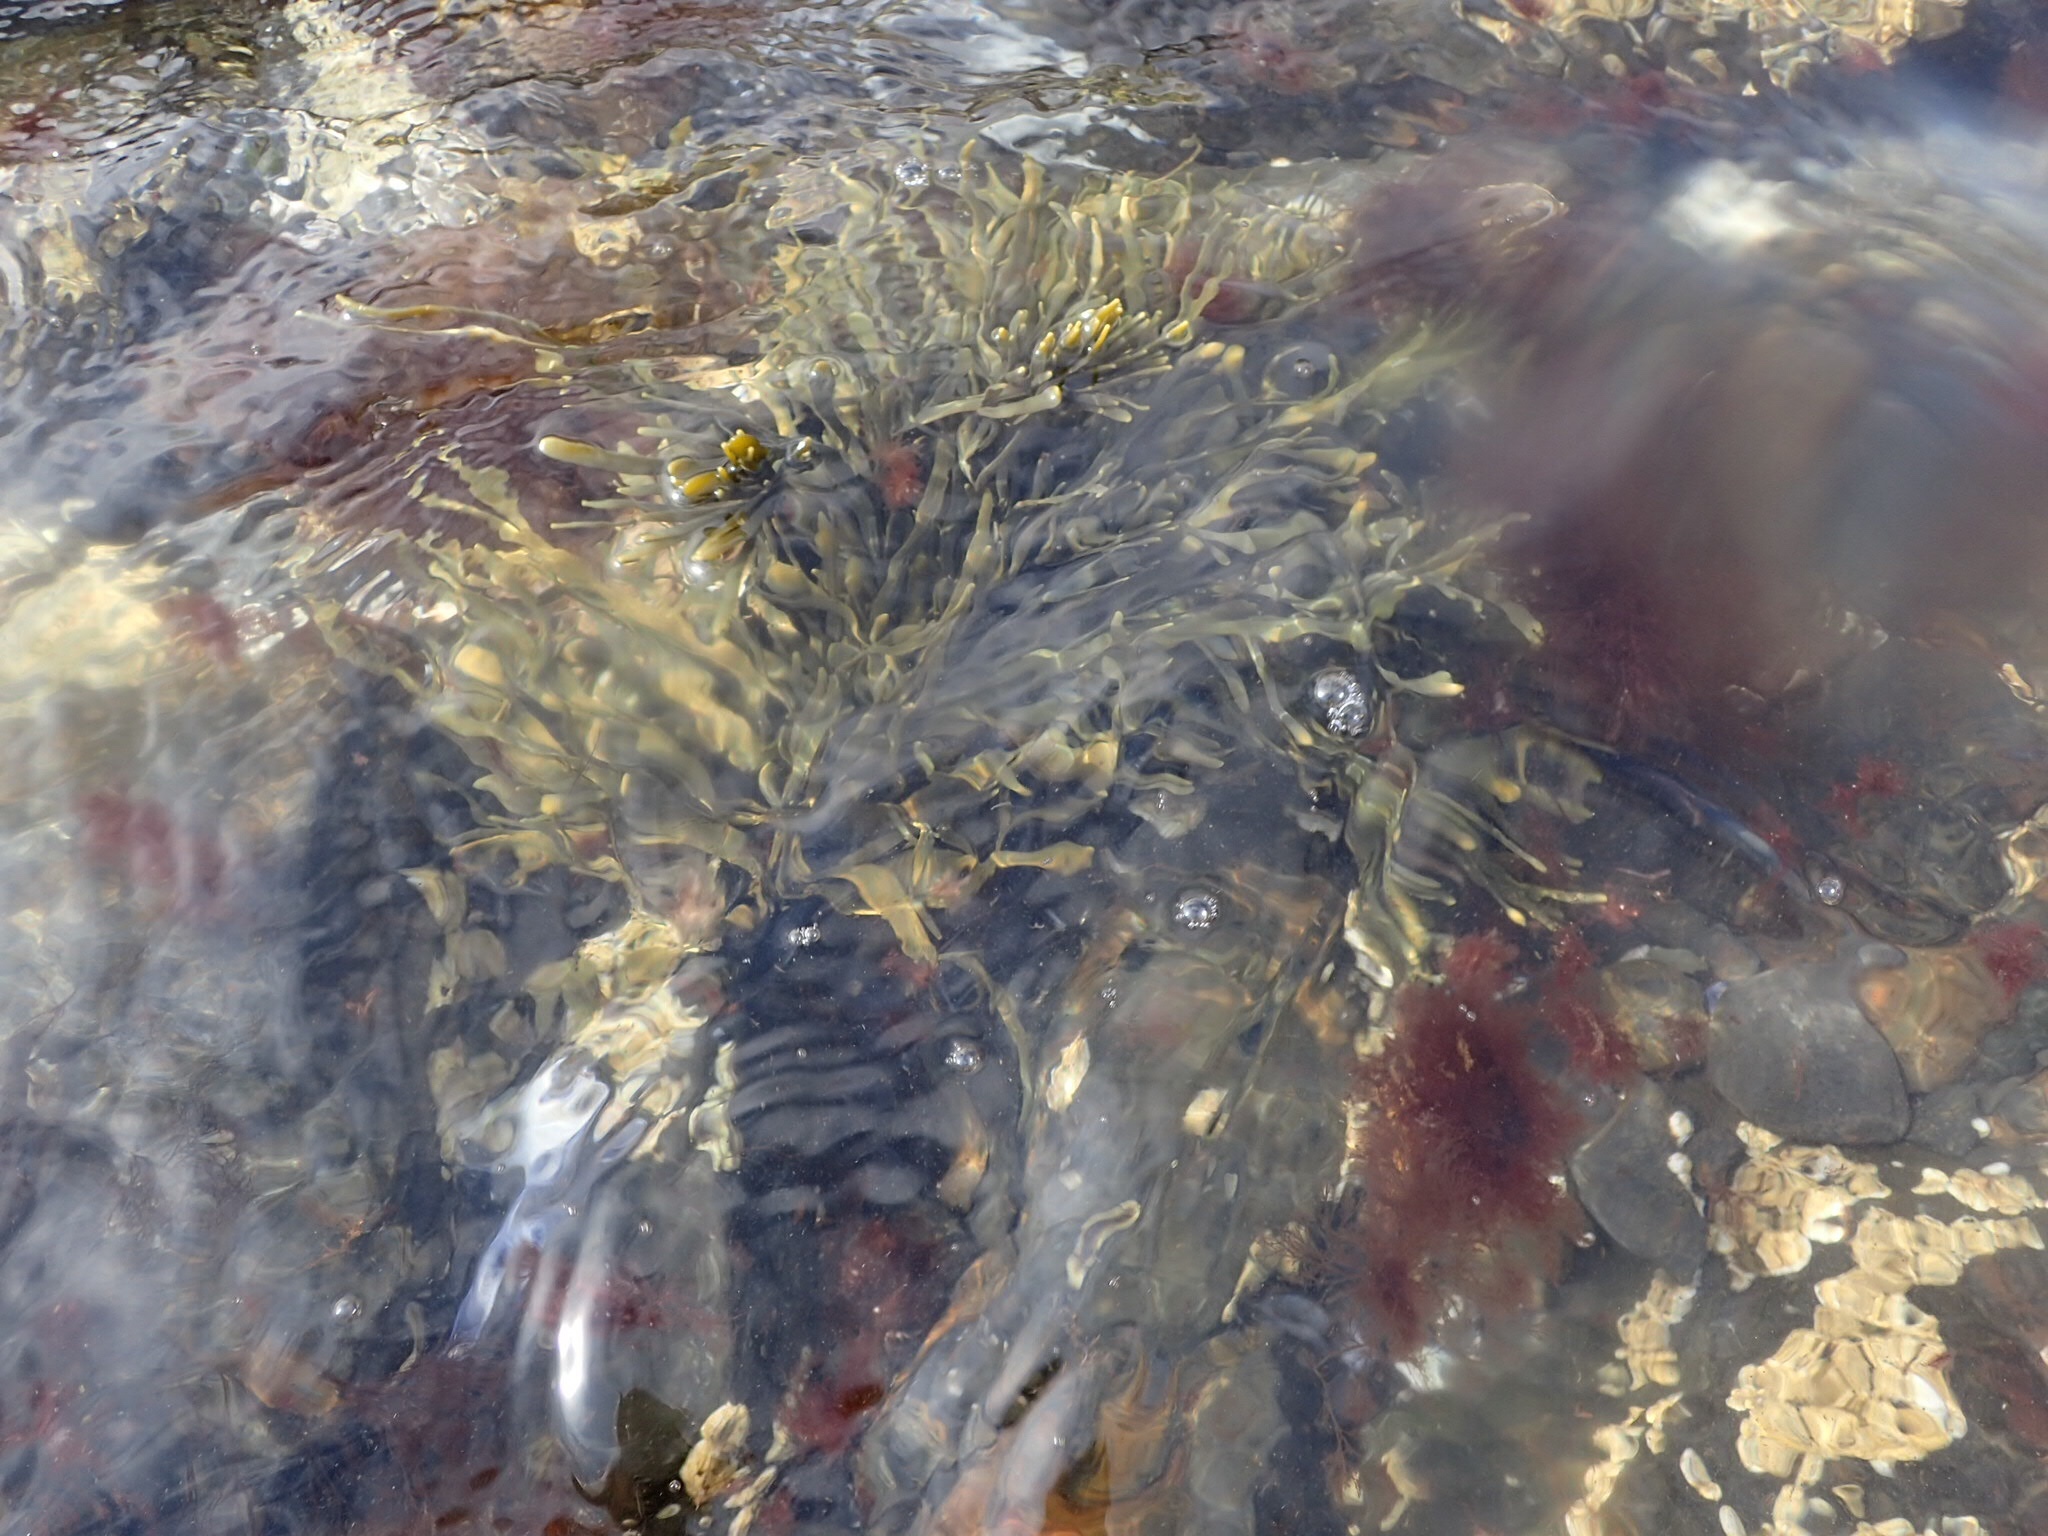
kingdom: Chromista
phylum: Ochrophyta
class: Phaeophyceae
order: Fucales
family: Fucaceae
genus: Ascophyllum
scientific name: Ascophyllum nodosum
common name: Knotted wrack
